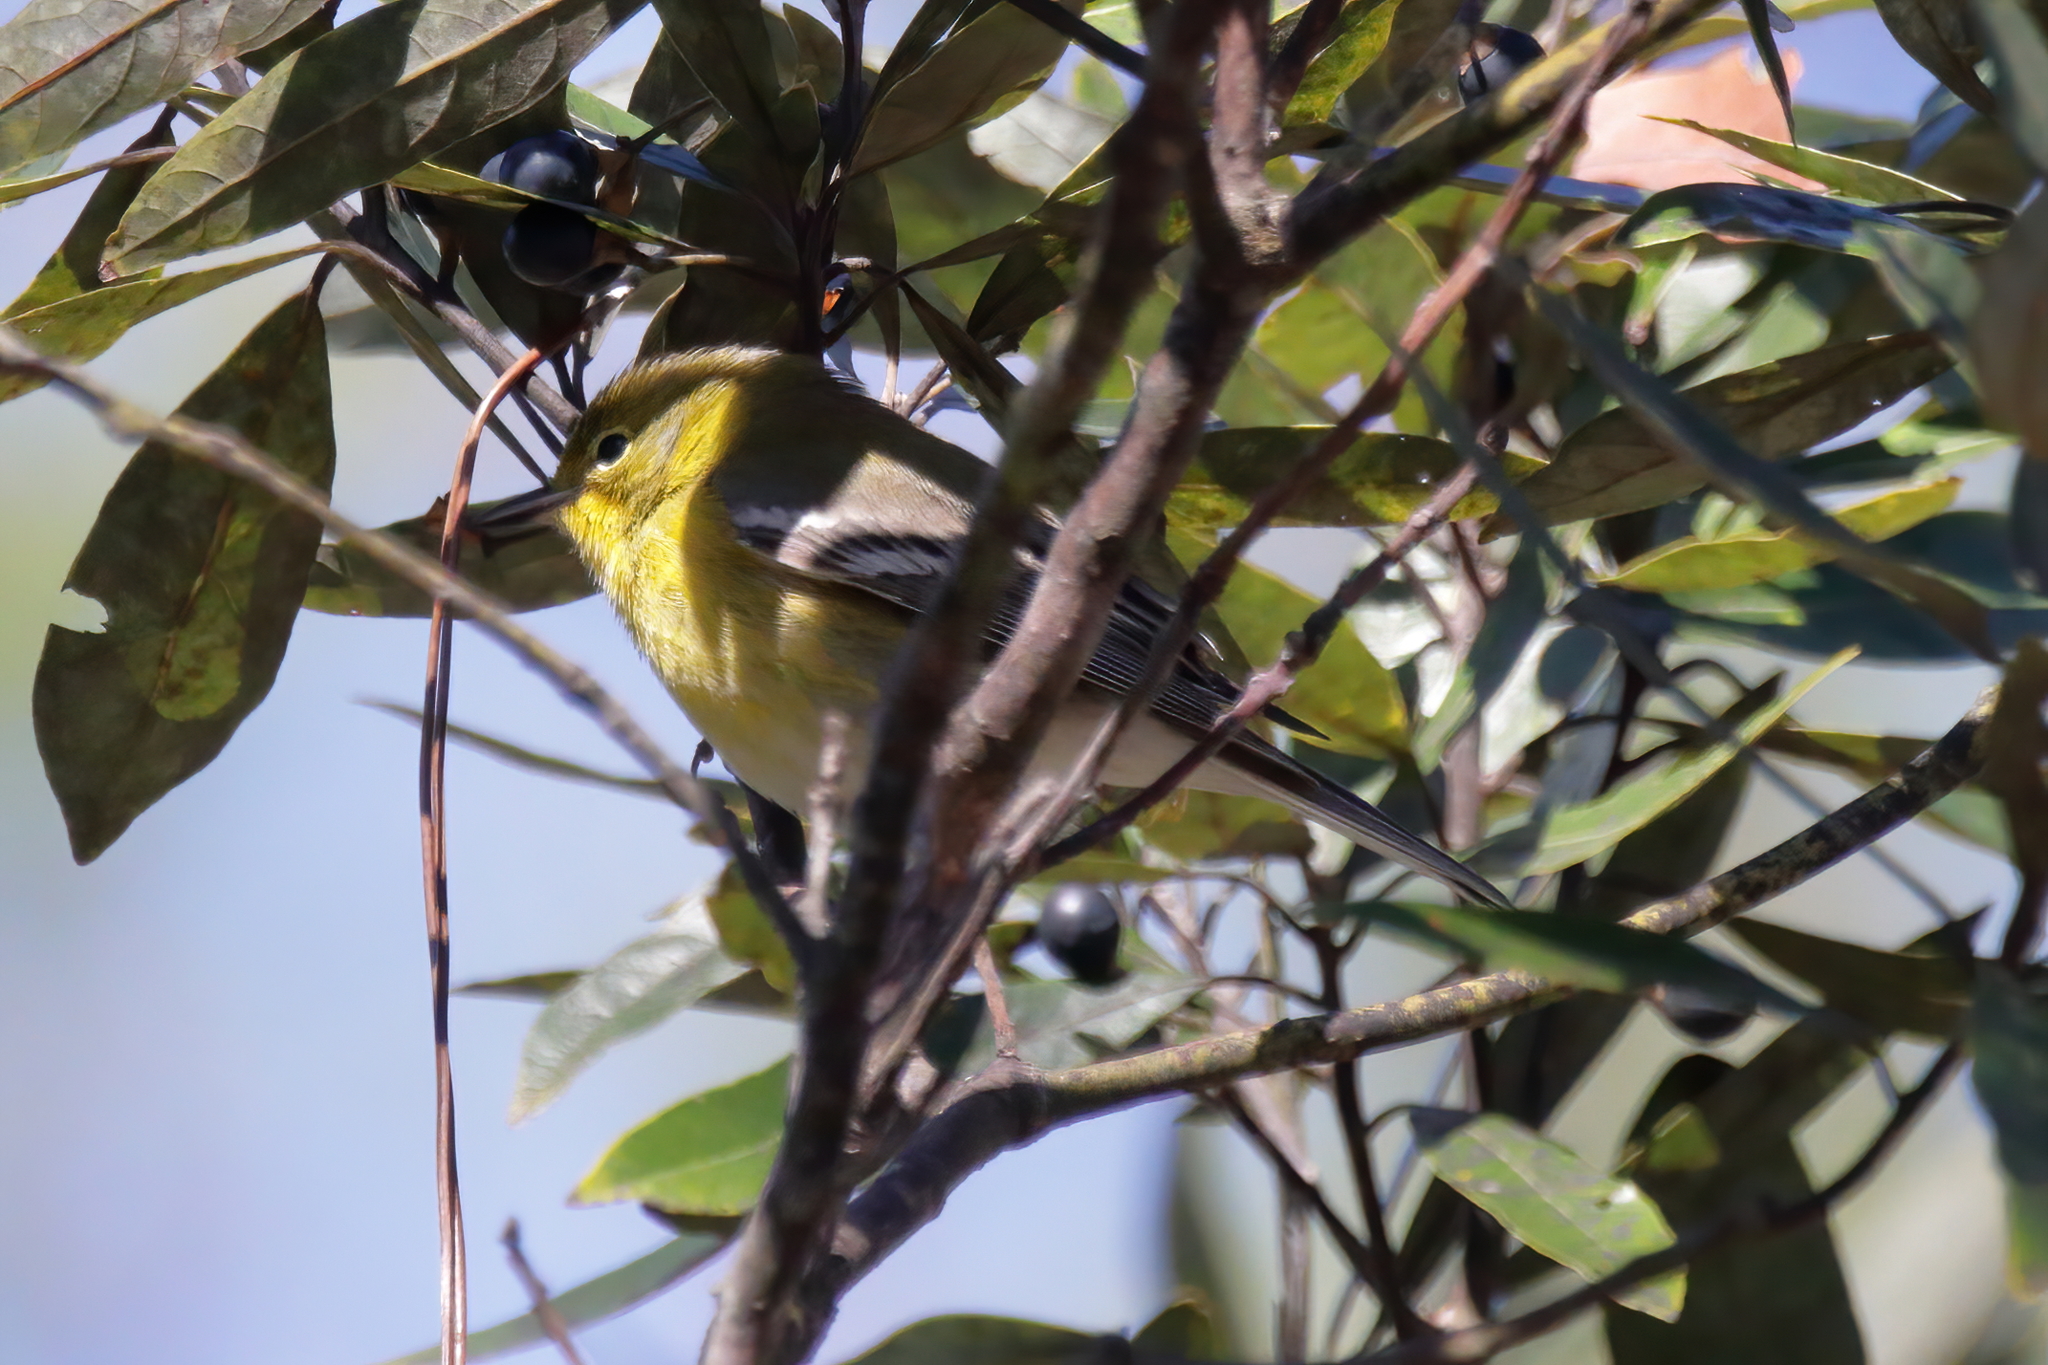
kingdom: Animalia
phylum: Chordata
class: Aves
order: Passeriformes
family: Parulidae
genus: Setophaga
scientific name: Setophaga pinus
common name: Pine warbler
